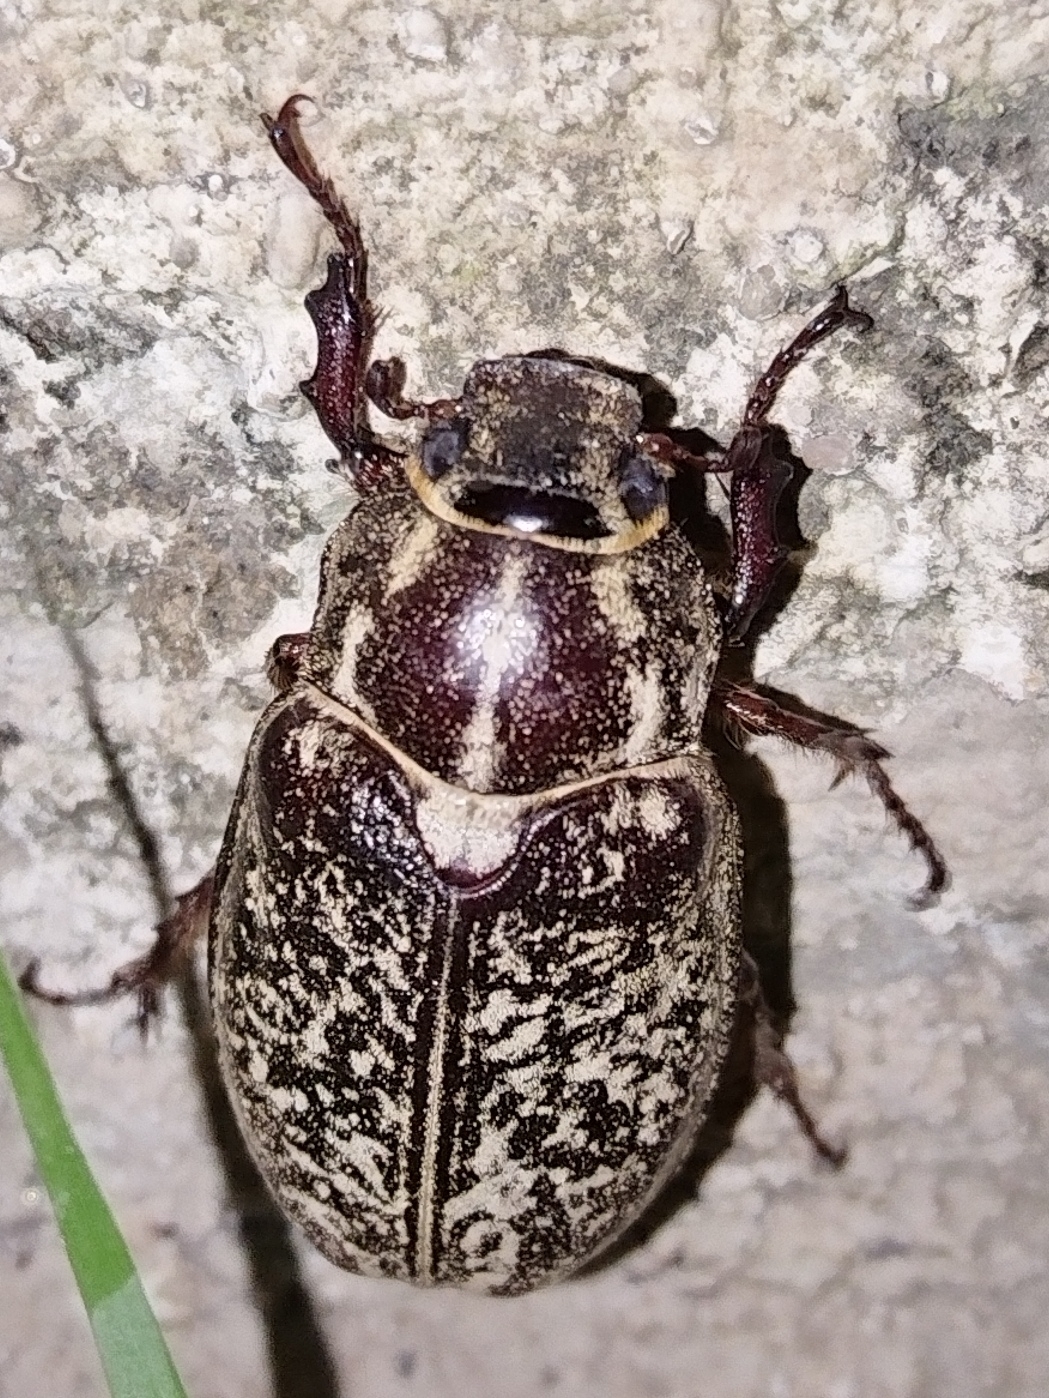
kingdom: Animalia
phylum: Arthropoda
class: Insecta
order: Coleoptera
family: Scarabaeidae
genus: Polyphylla
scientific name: Polyphylla fullo
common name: Pine chafer
